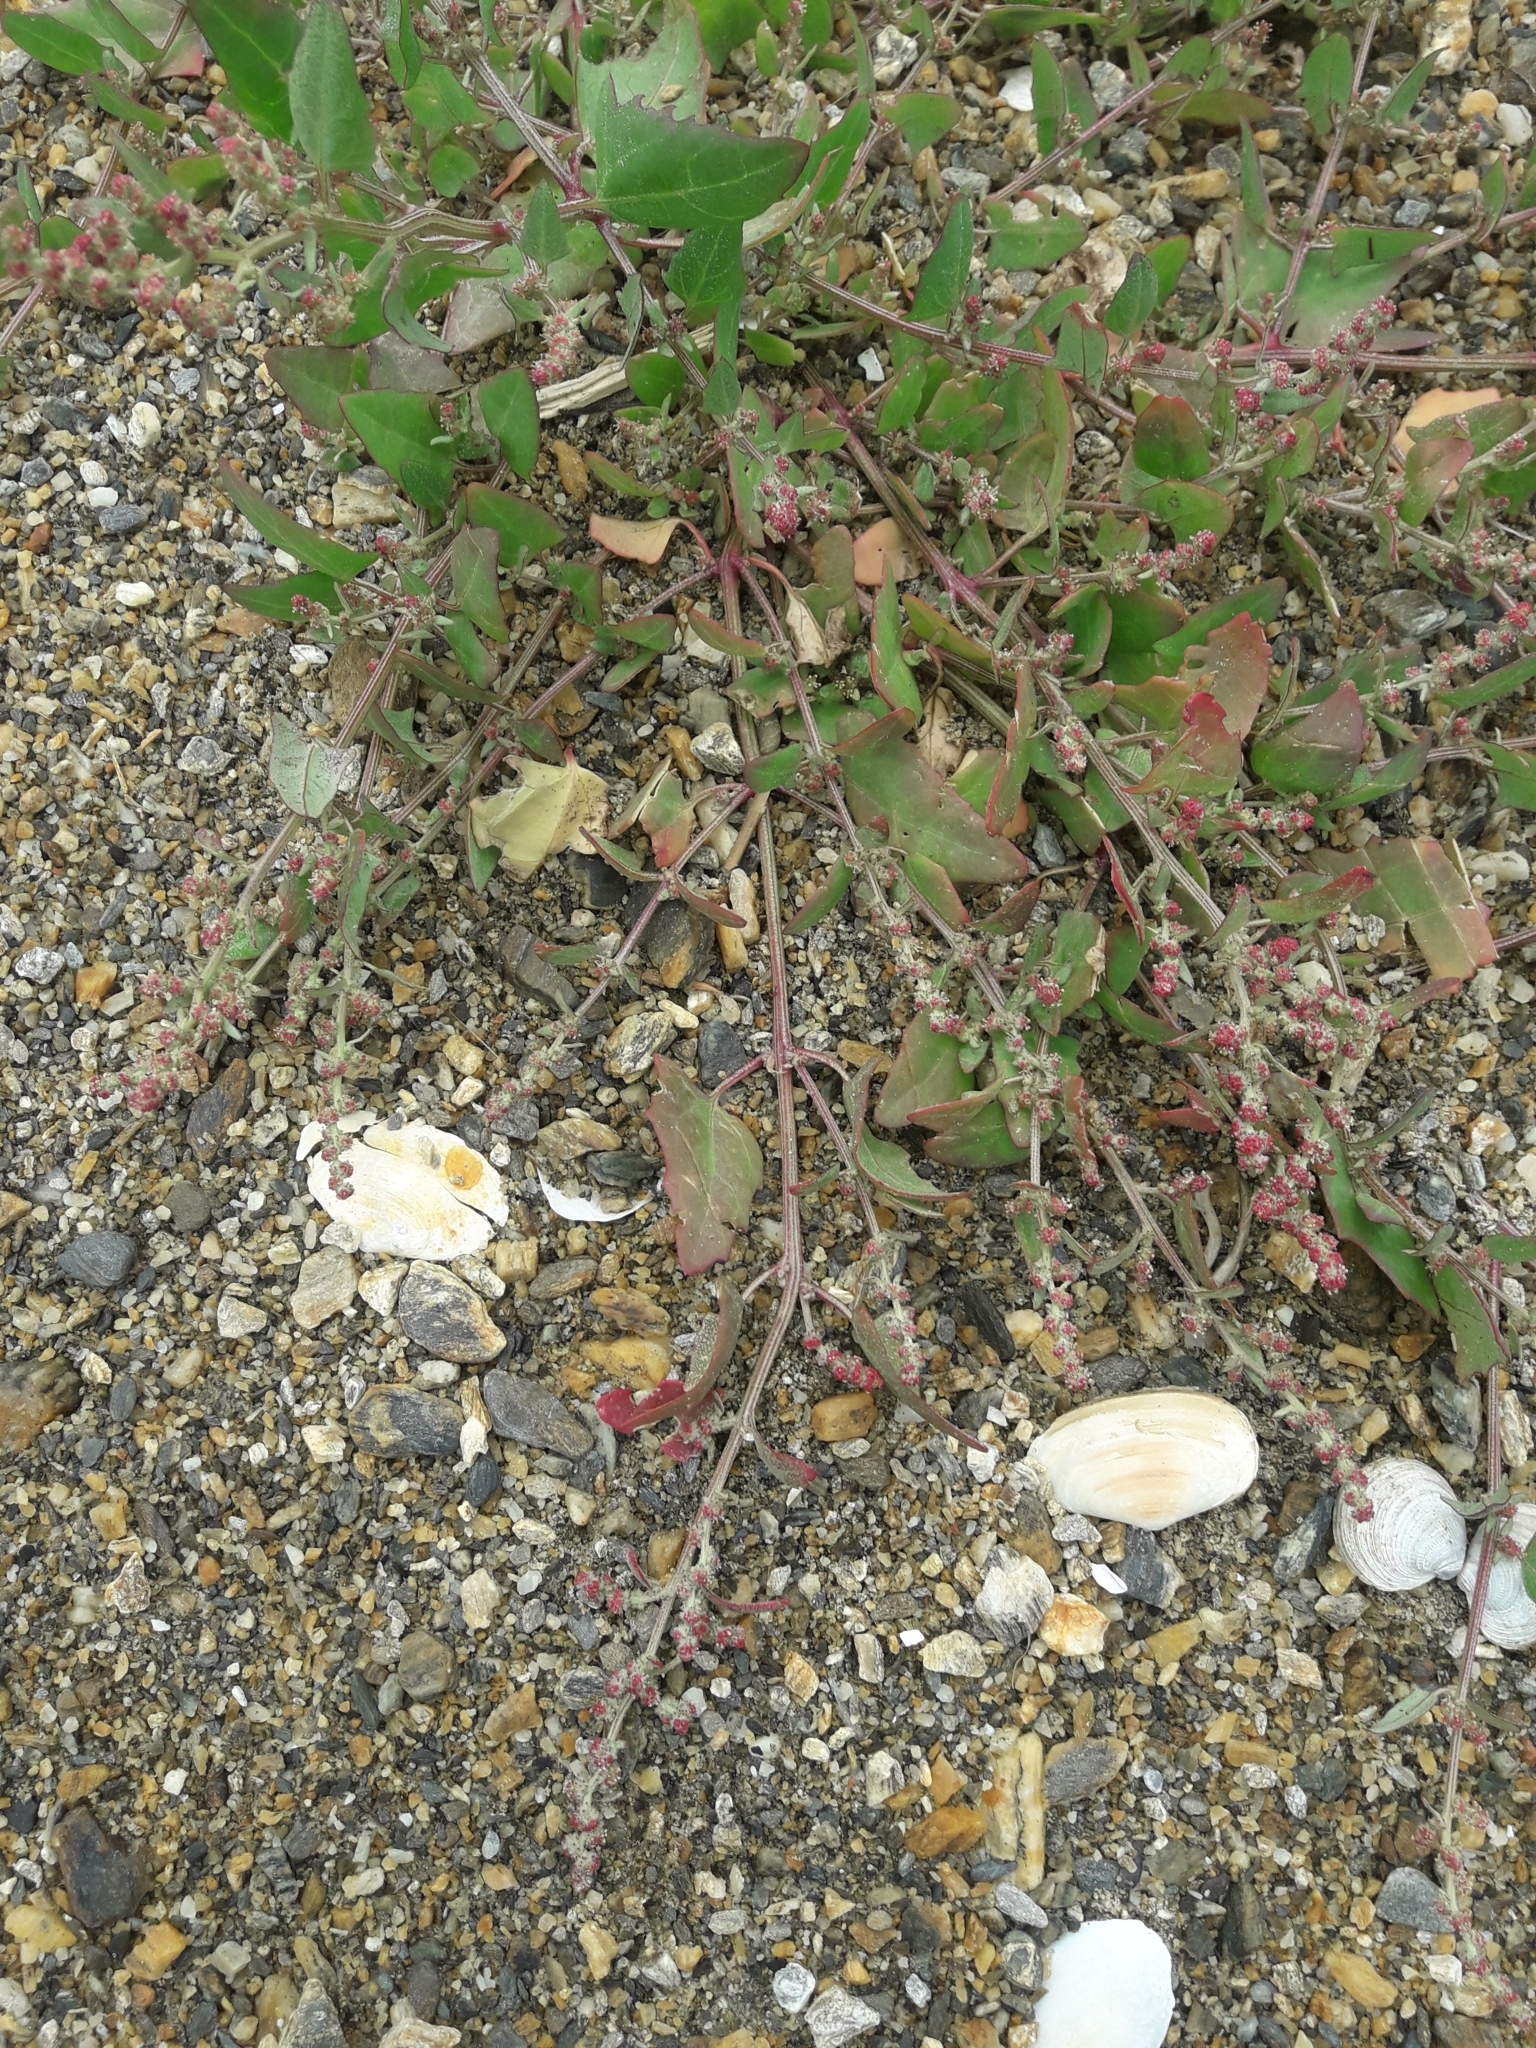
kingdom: Plantae
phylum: Tracheophyta
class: Magnoliopsida
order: Caryophyllales
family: Amaranthaceae
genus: Atriplex
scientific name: Atriplex prostrata
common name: Spear-leaved orache
